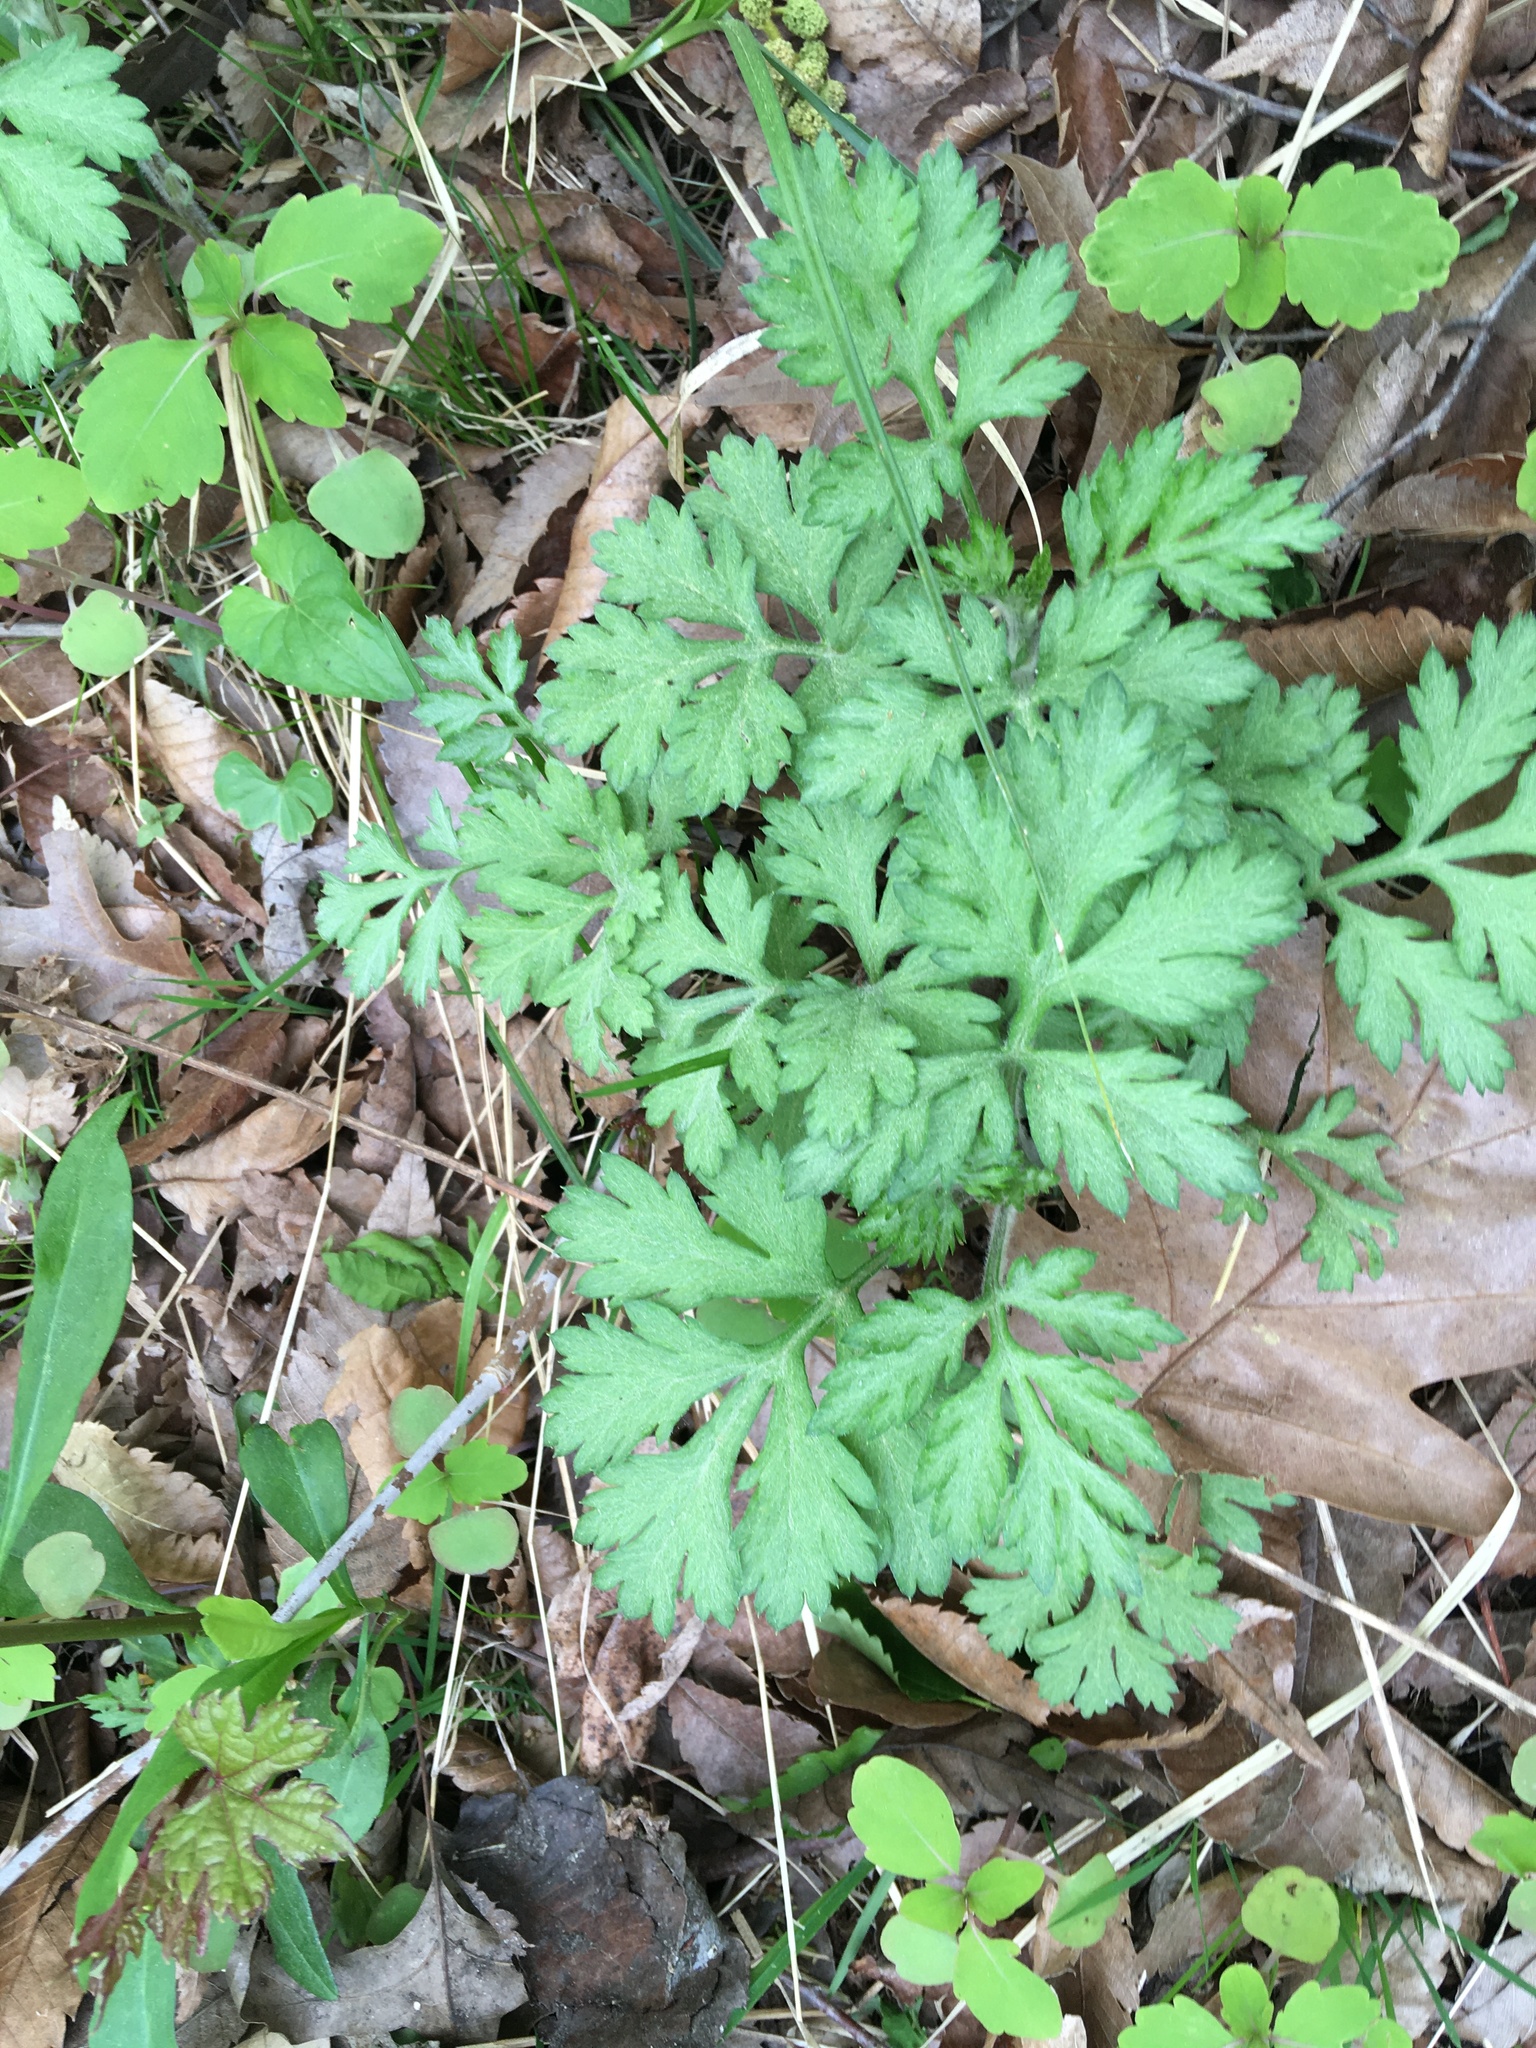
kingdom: Plantae
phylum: Tracheophyta
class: Magnoliopsida
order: Asterales
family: Asteraceae
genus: Artemisia
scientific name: Artemisia vulgaris
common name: Mugwort
